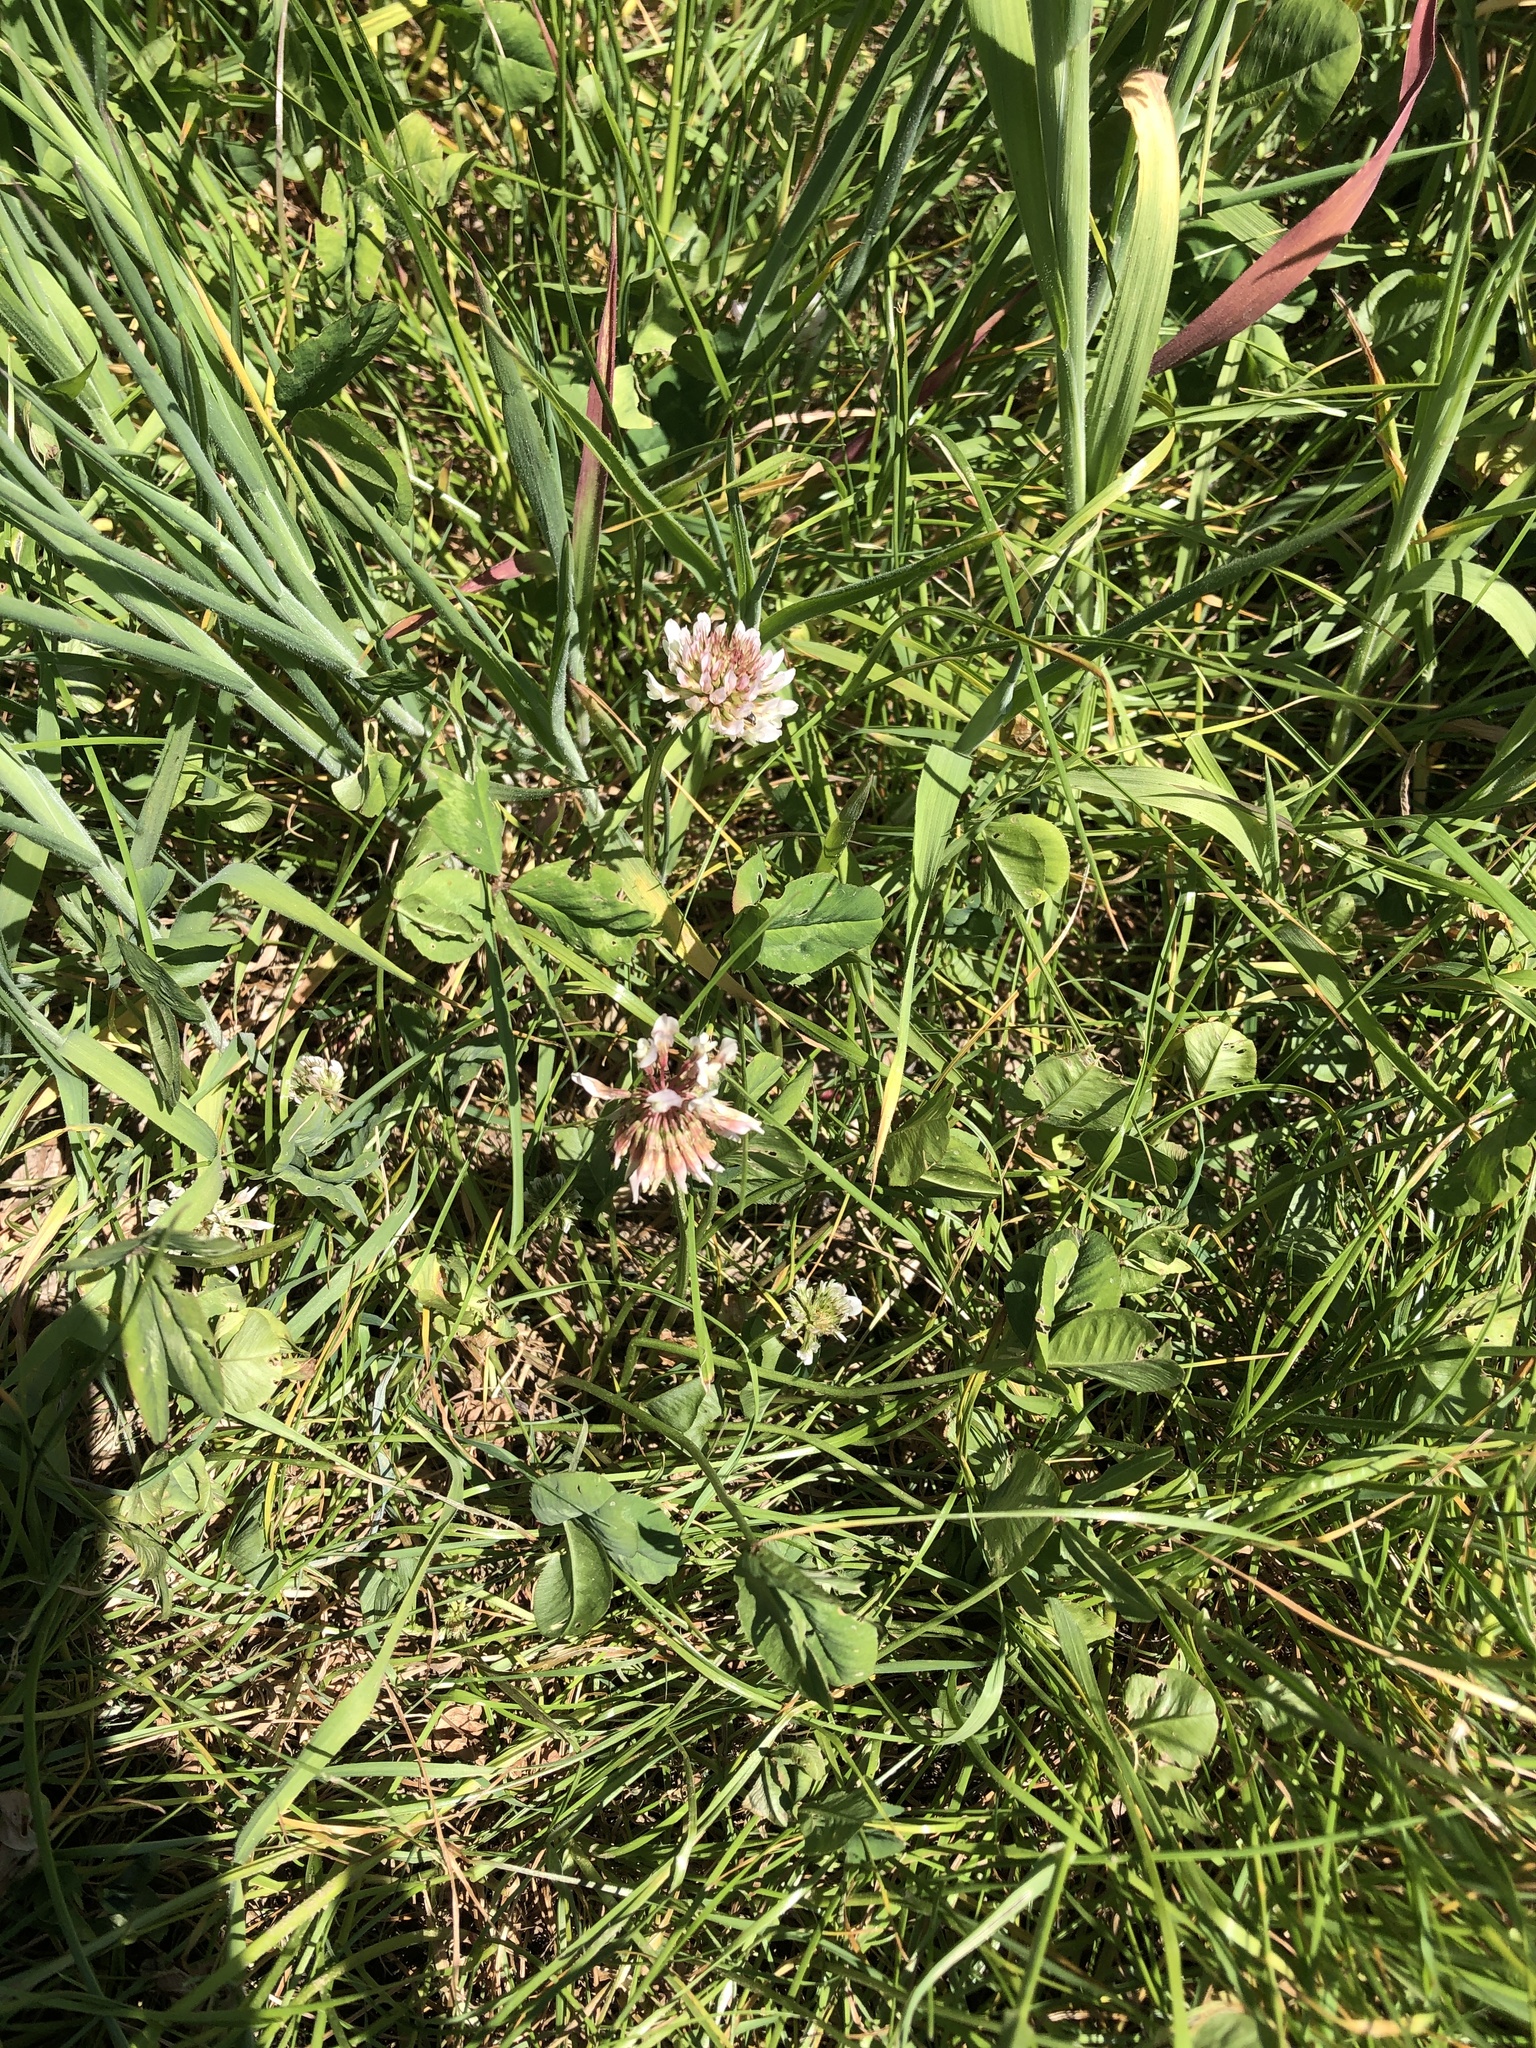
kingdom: Plantae
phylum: Tracheophyta
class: Magnoliopsida
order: Fabales
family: Fabaceae
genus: Trifolium
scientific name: Trifolium repens
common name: White clover
